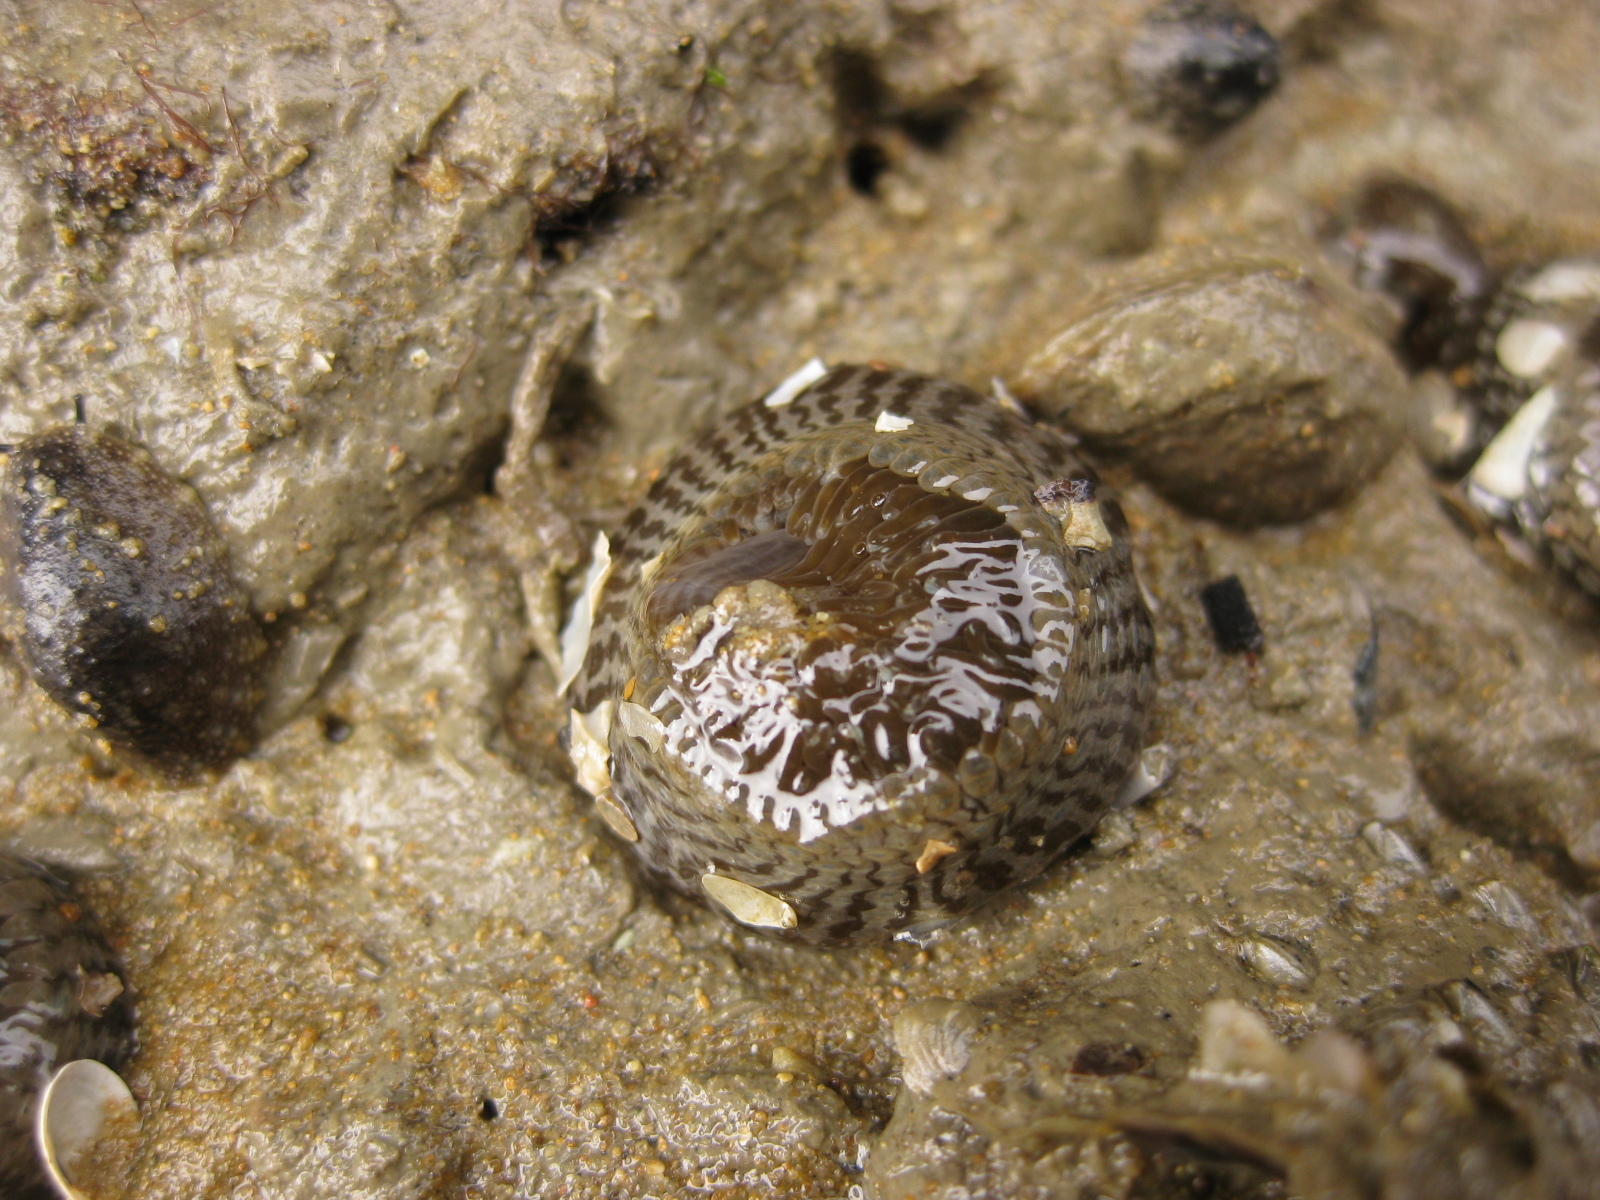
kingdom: Animalia
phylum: Cnidaria
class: Anthozoa
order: Actiniaria
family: Actiniidae
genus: Anthopleura
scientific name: Anthopleura hermaphroditica
